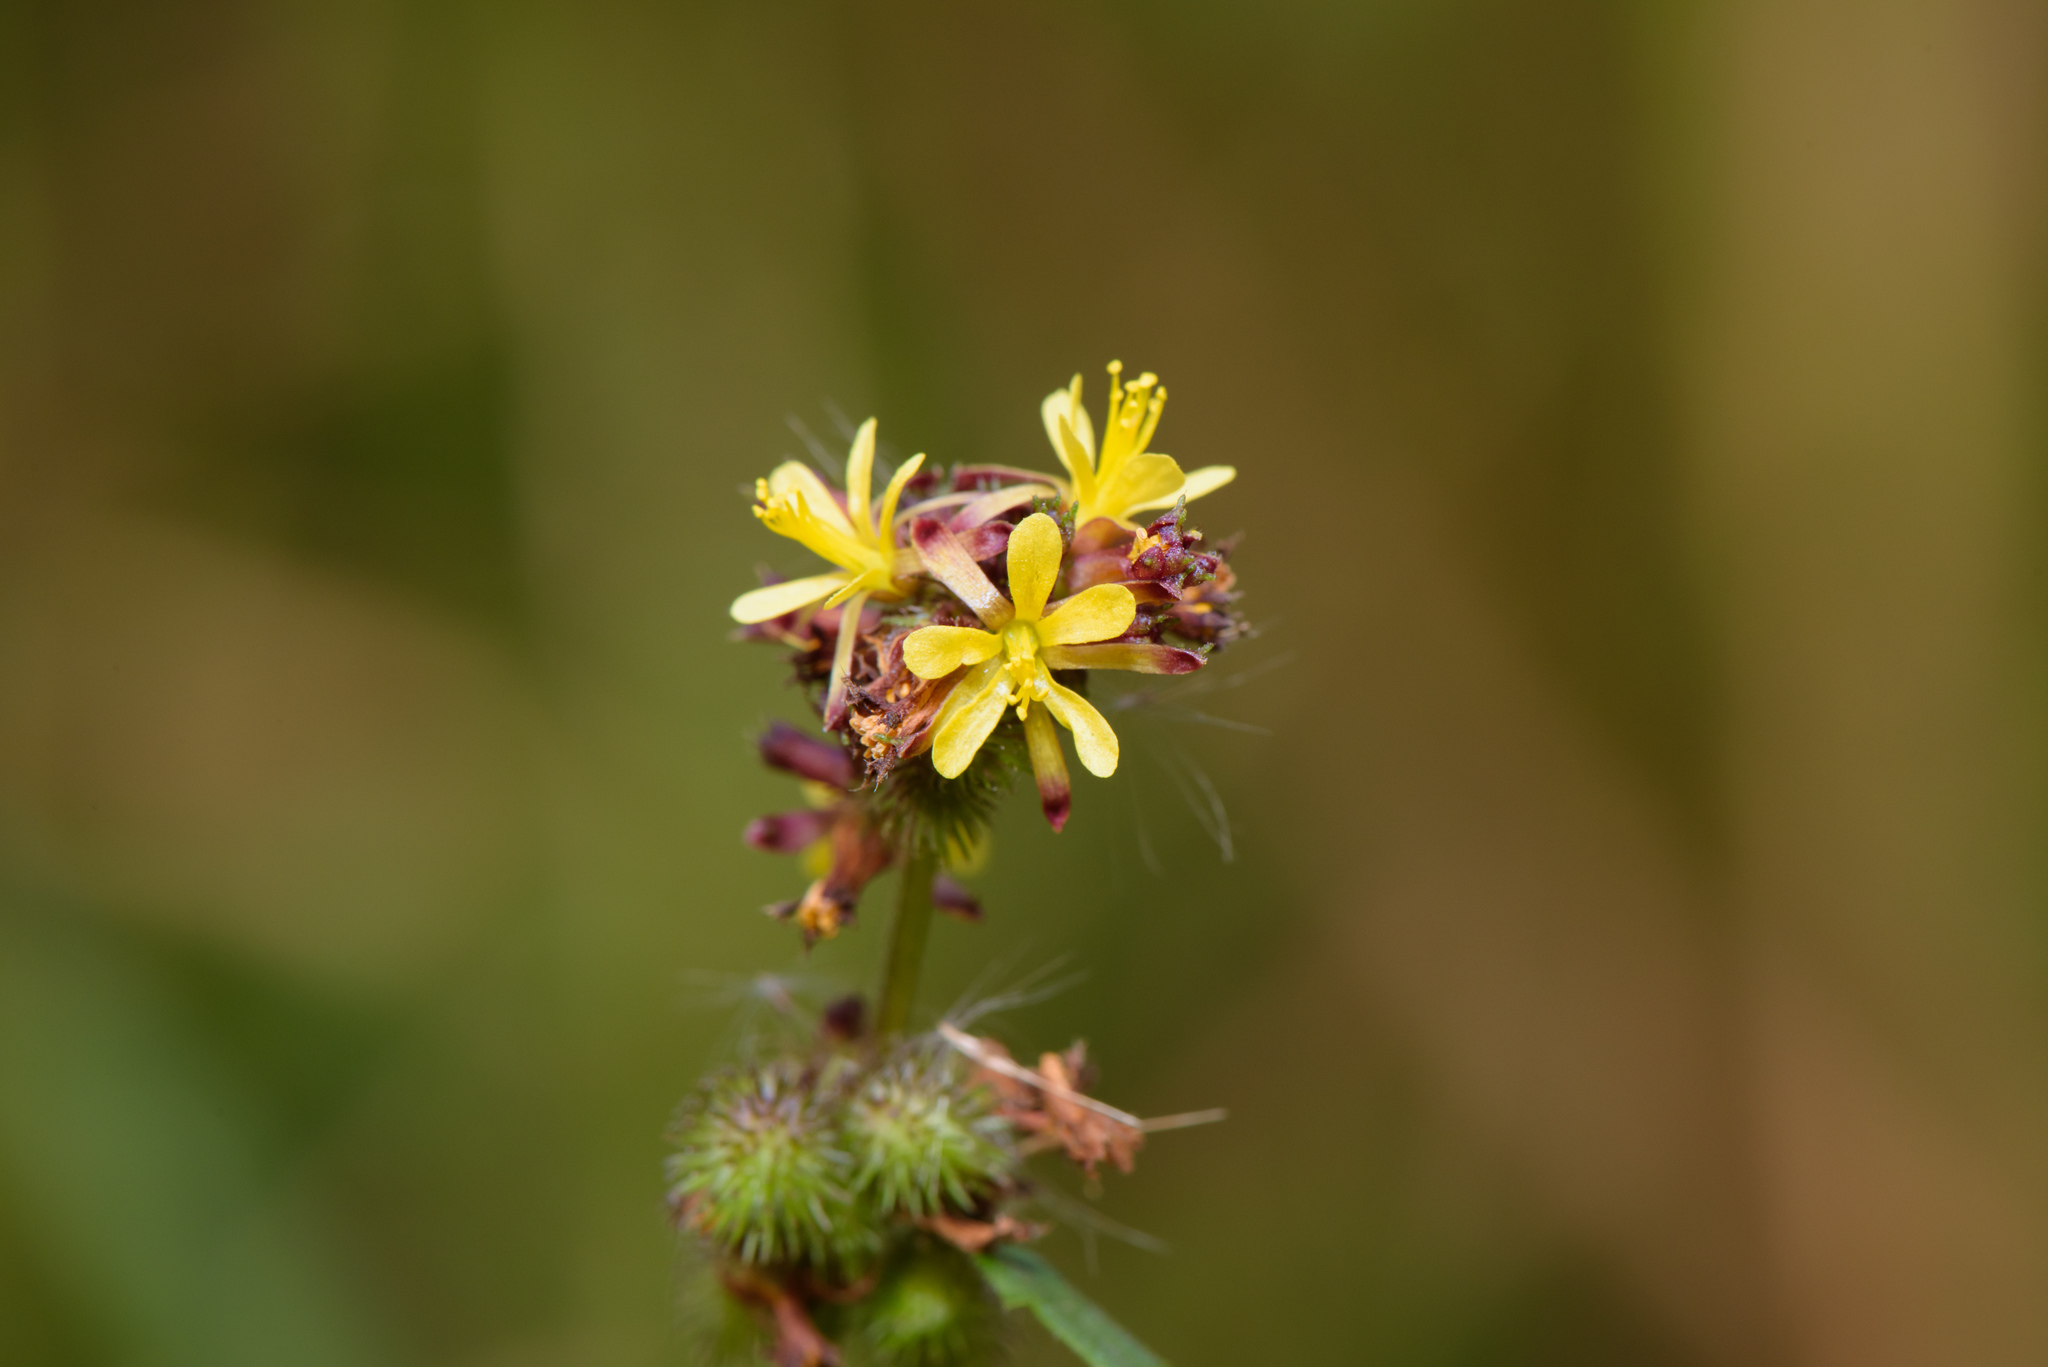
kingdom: Plantae
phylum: Tracheophyta
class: Magnoliopsida
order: Malvales
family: Malvaceae
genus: Triumfetta
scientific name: Triumfetta semitriloba
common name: Sacramento burbark
